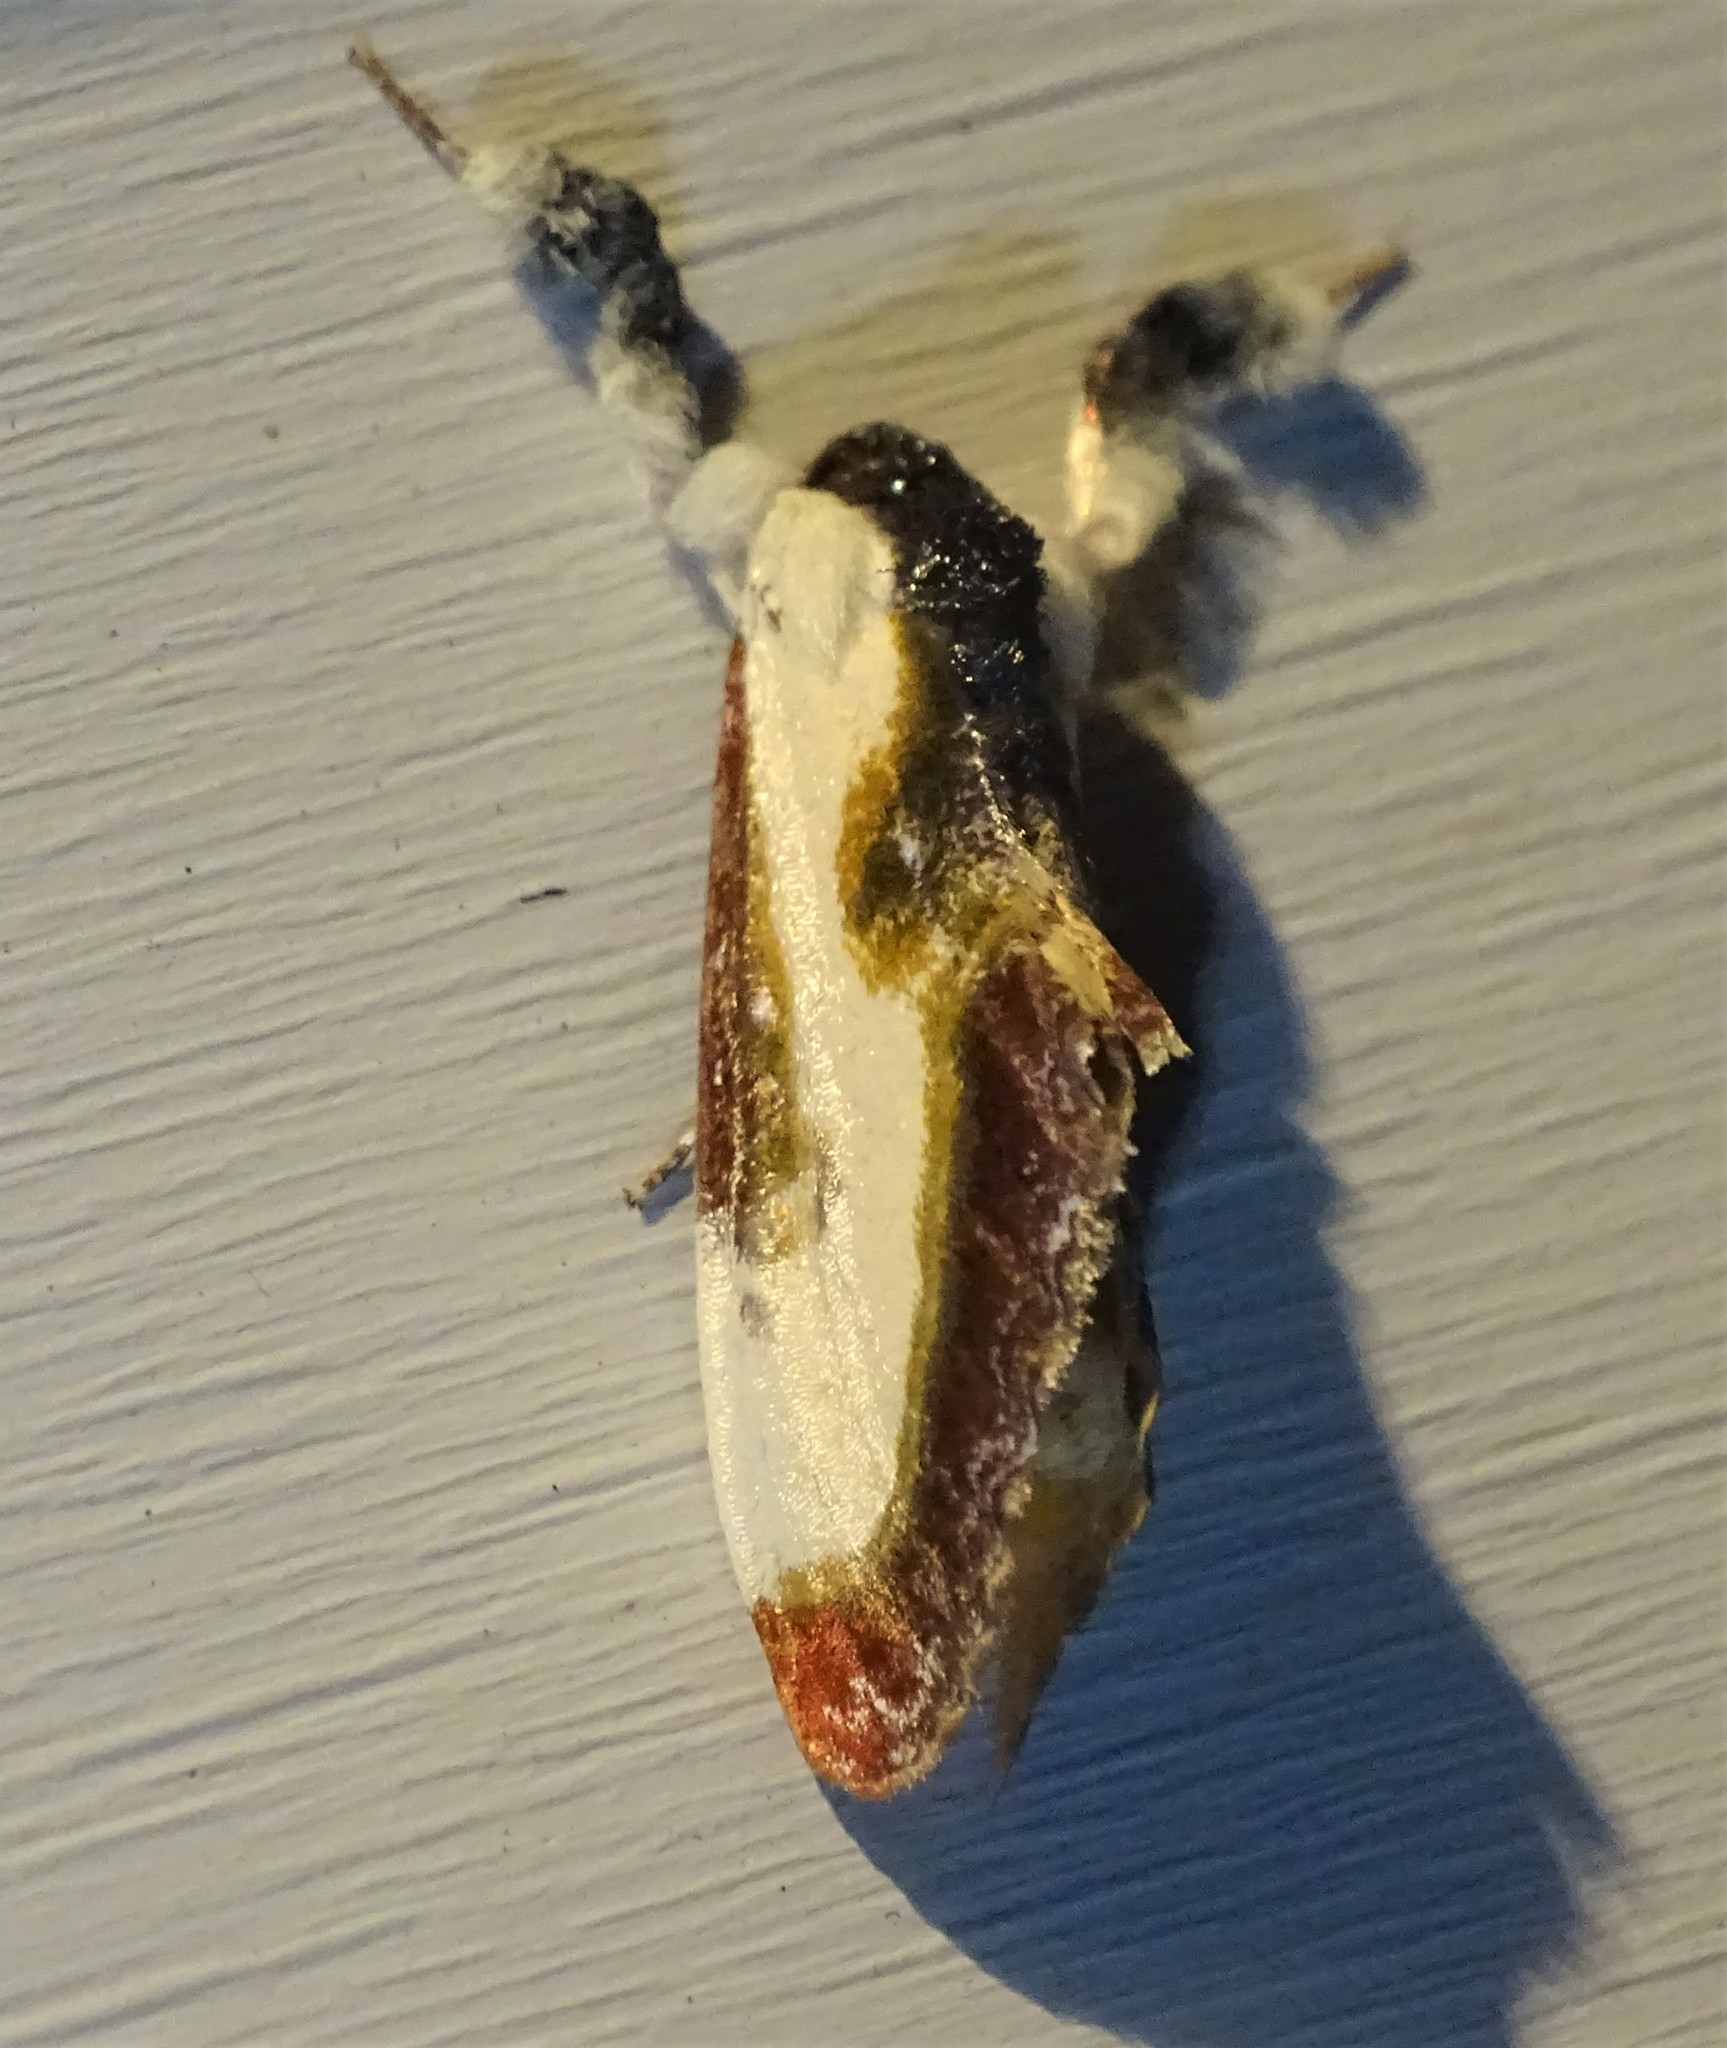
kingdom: Animalia
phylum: Arthropoda
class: Insecta
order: Lepidoptera
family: Noctuidae
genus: Eudryas
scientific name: Eudryas grata
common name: Beautiful wood-nymph
